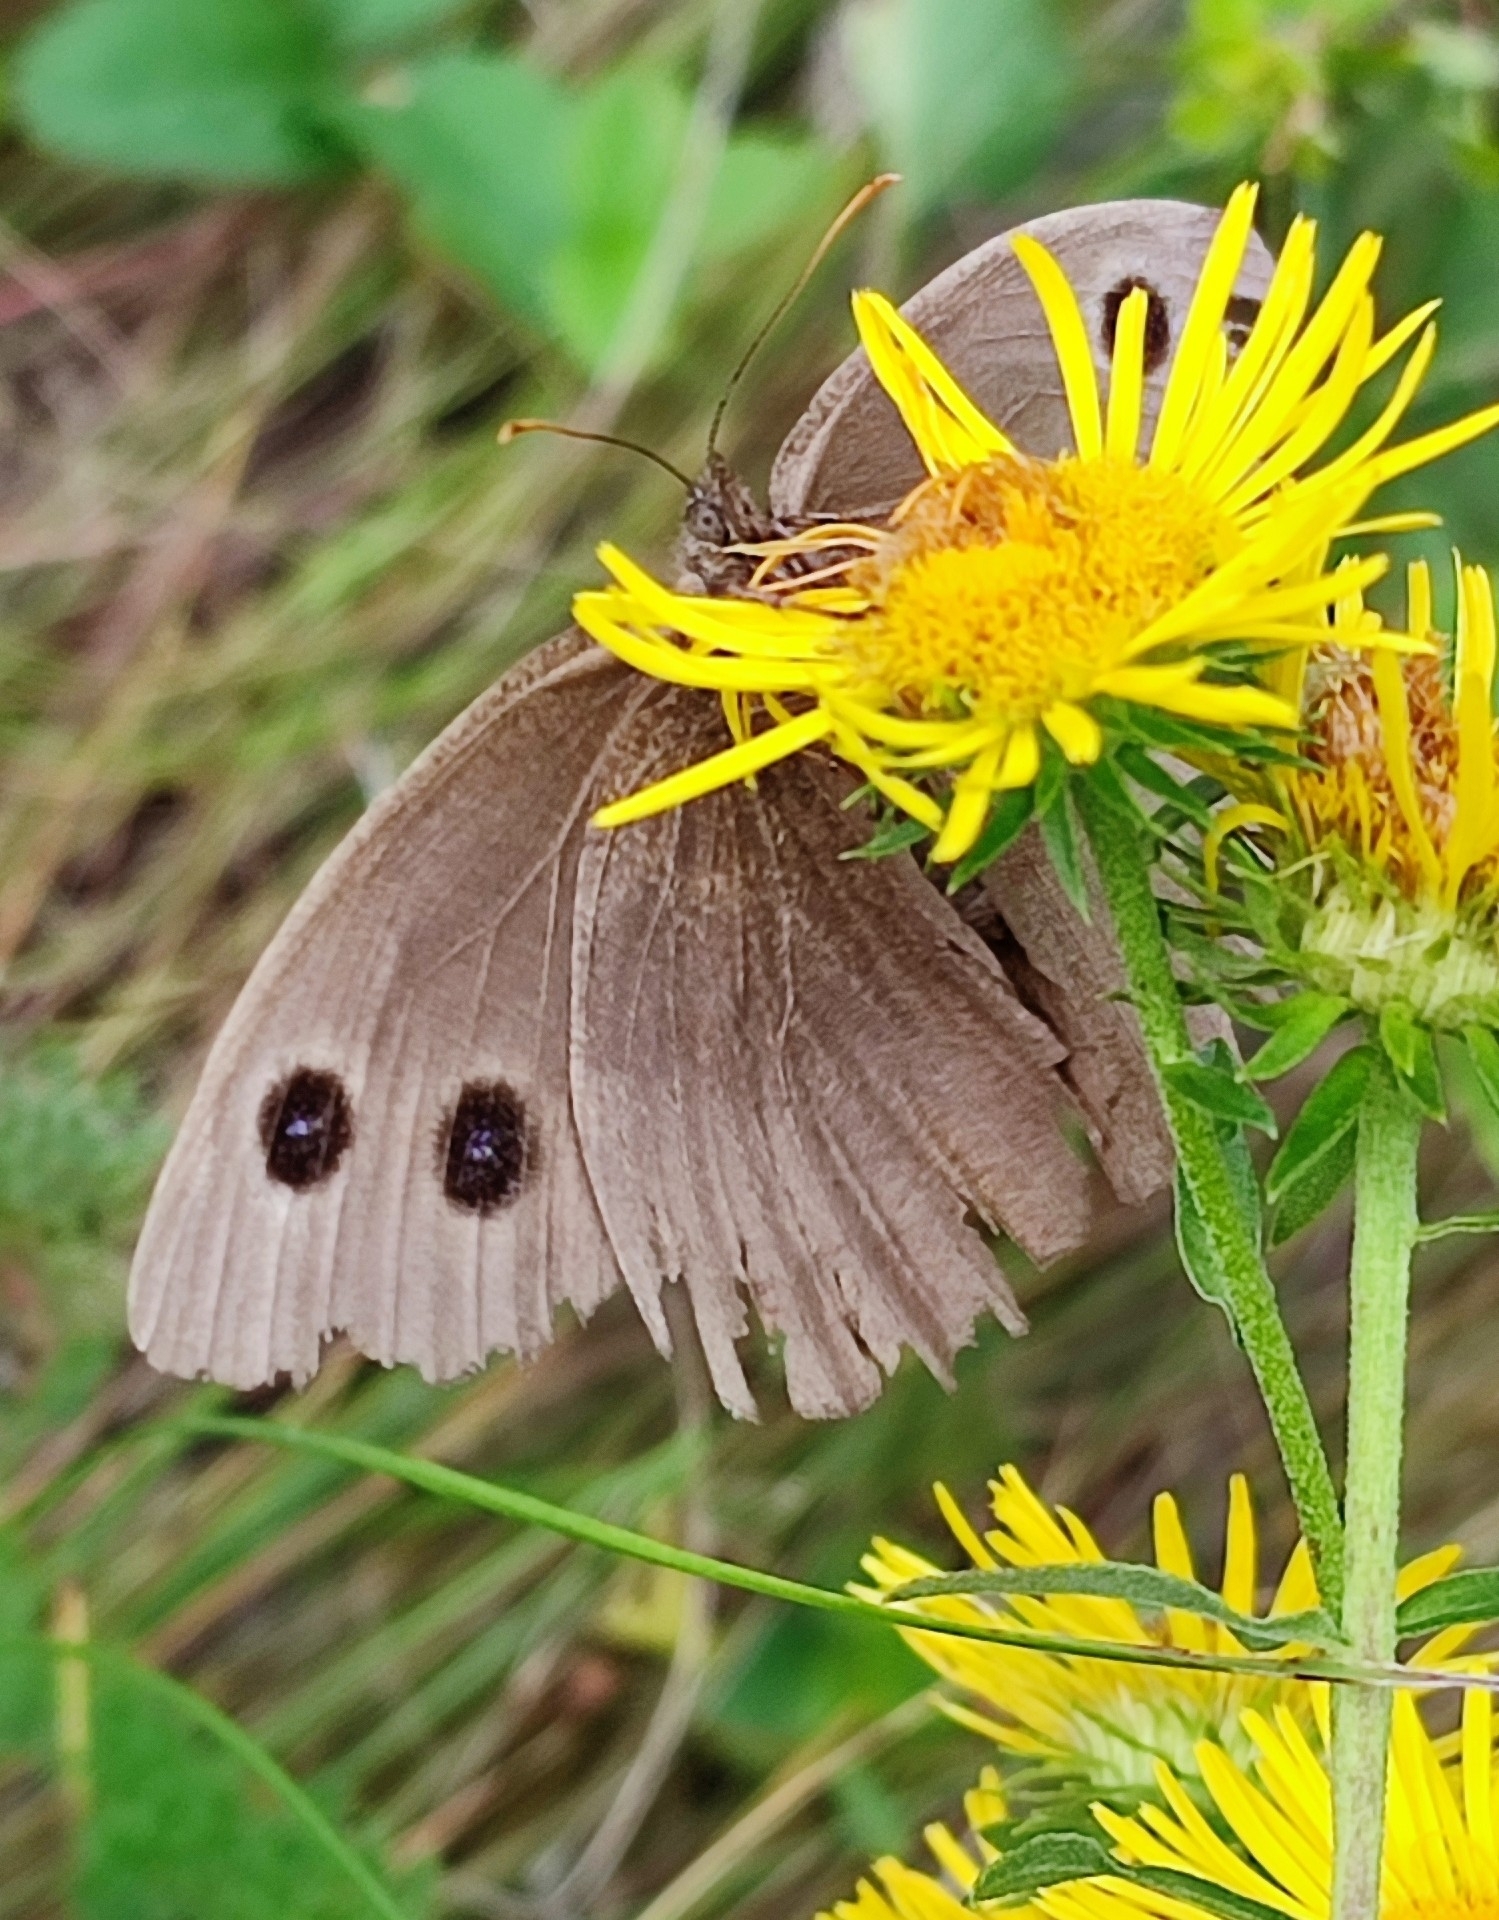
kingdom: Animalia
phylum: Arthropoda
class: Insecta
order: Lepidoptera
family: Nymphalidae
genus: Minois
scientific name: Minois dryas
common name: Dryad
